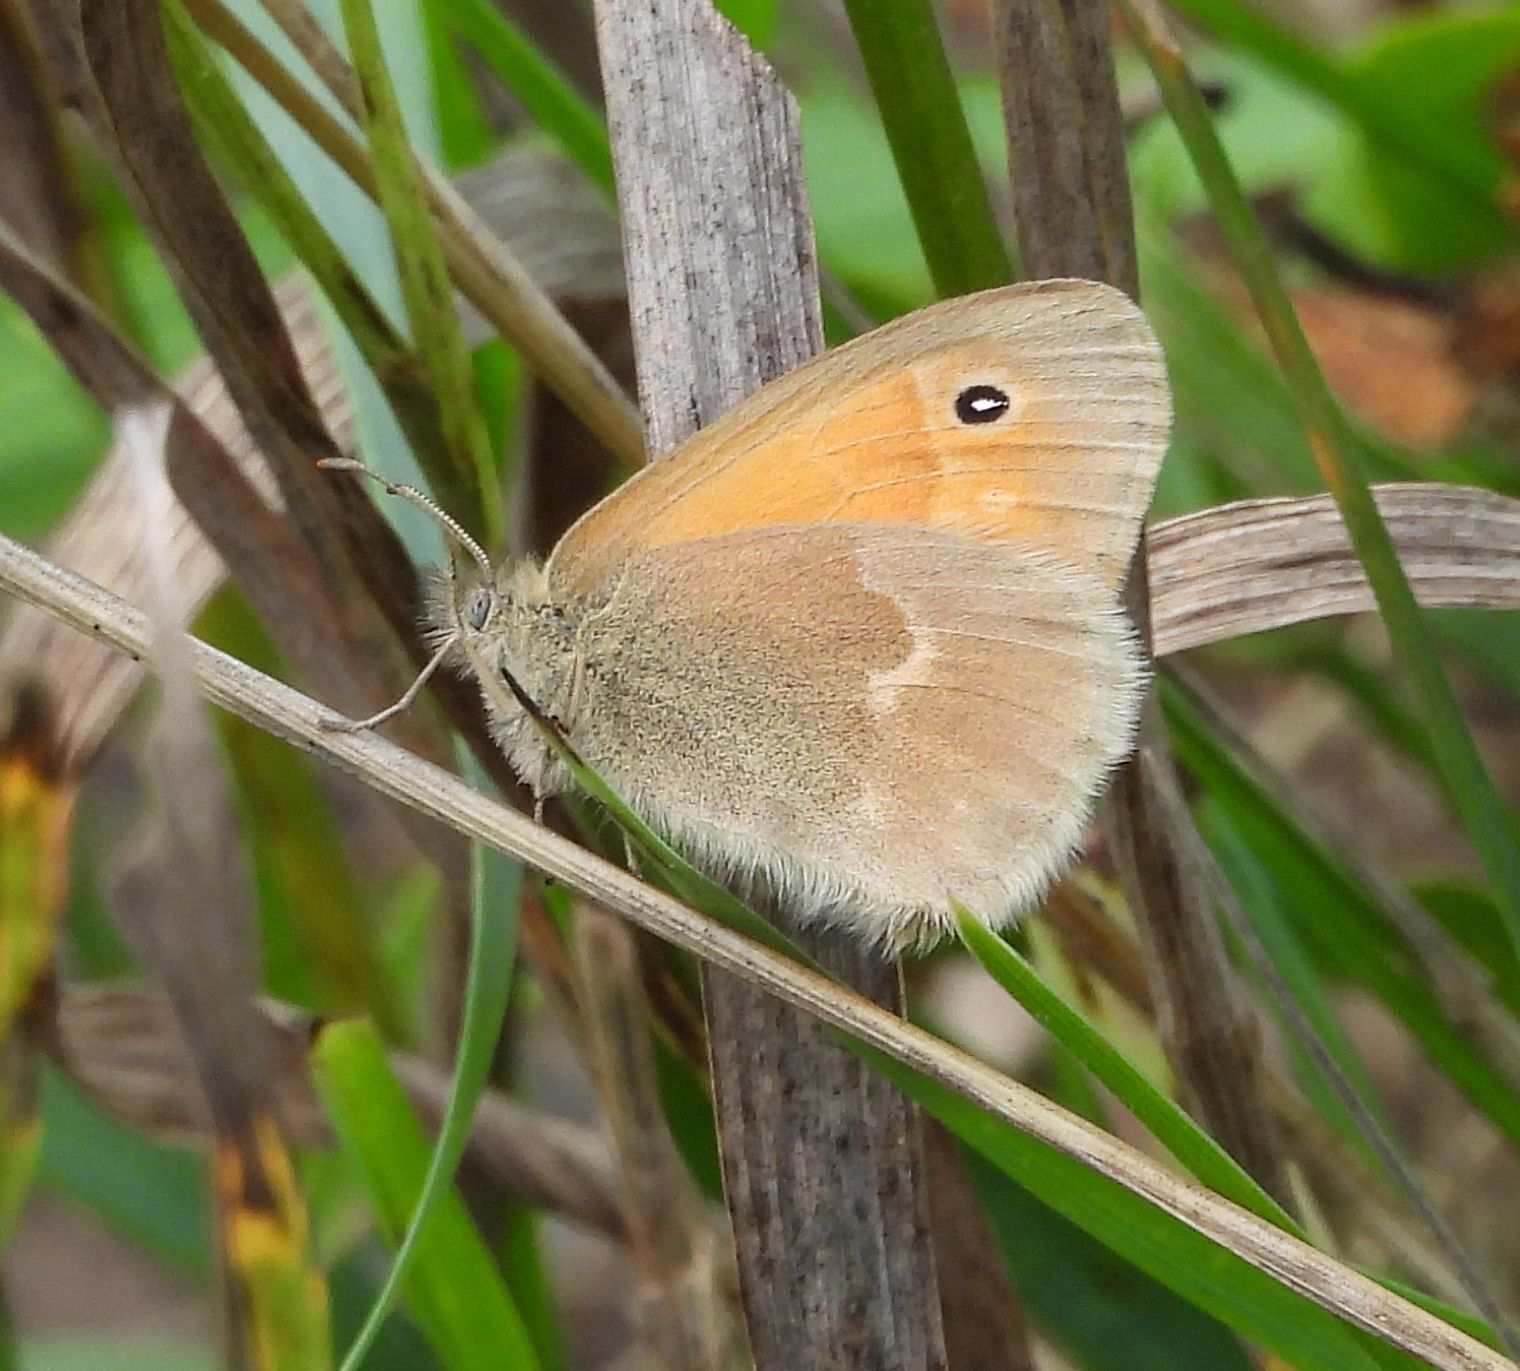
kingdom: Animalia
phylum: Arthropoda
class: Insecta
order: Lepidoptera
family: Nymphalidae
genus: Coenonympha
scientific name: Coenonympha california
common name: Common ringlet
